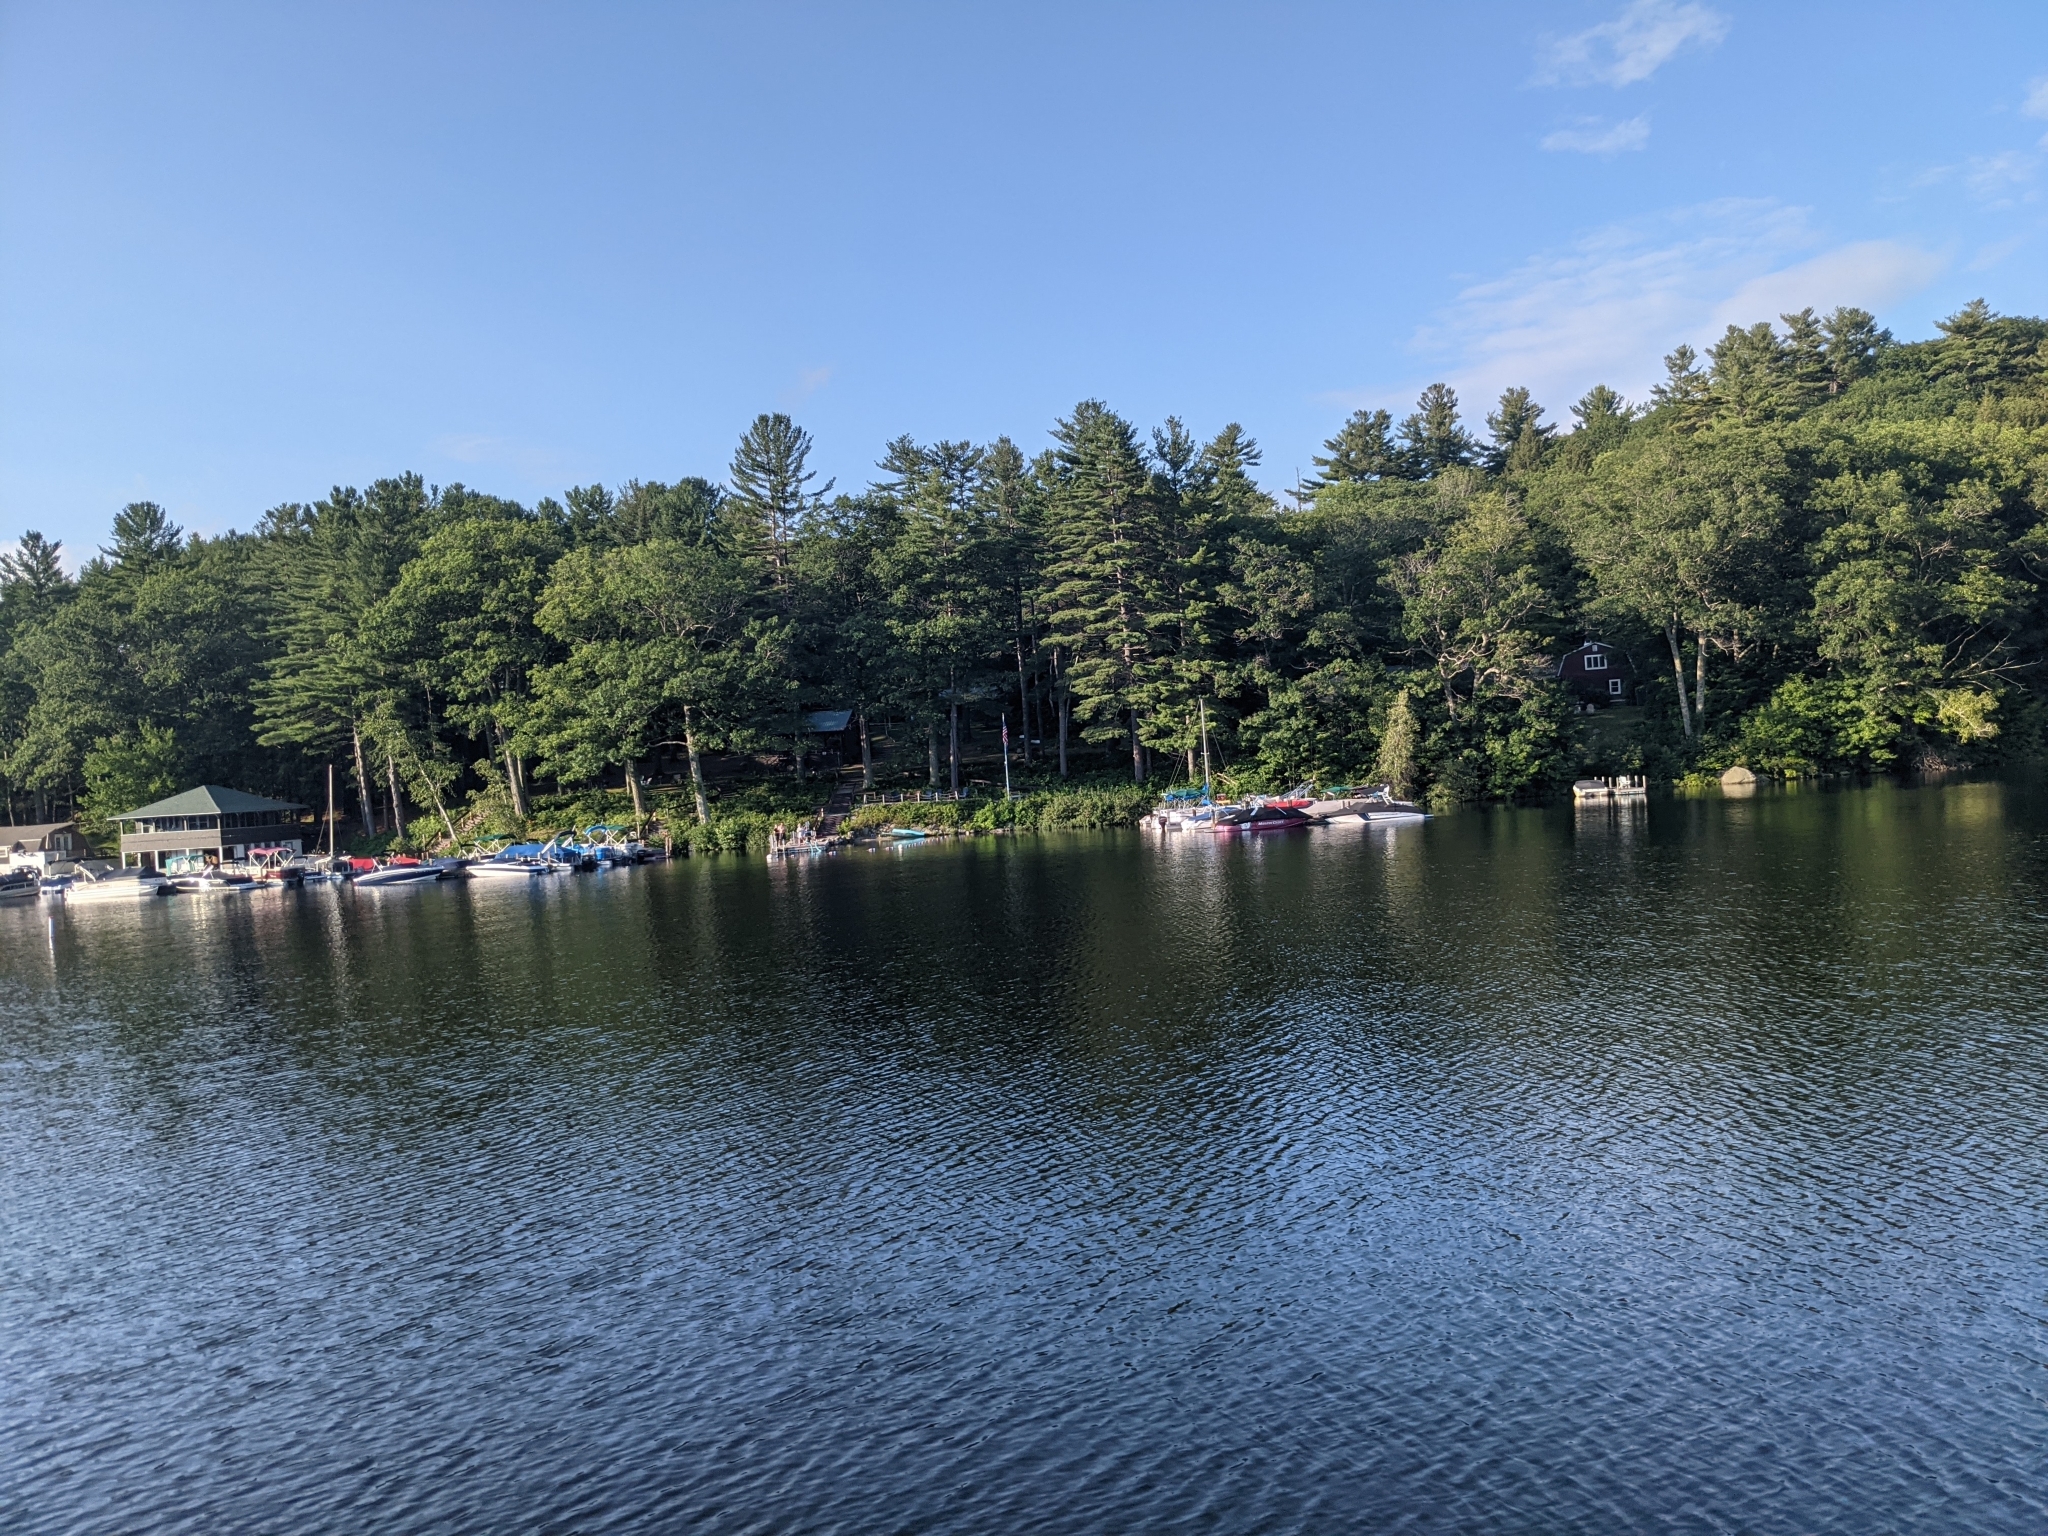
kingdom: Plantae
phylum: Tracheophyta
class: Pinopsida
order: Pinales
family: Pinaceae
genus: Pinus
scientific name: Pinus strobus
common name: Weymouth pine
